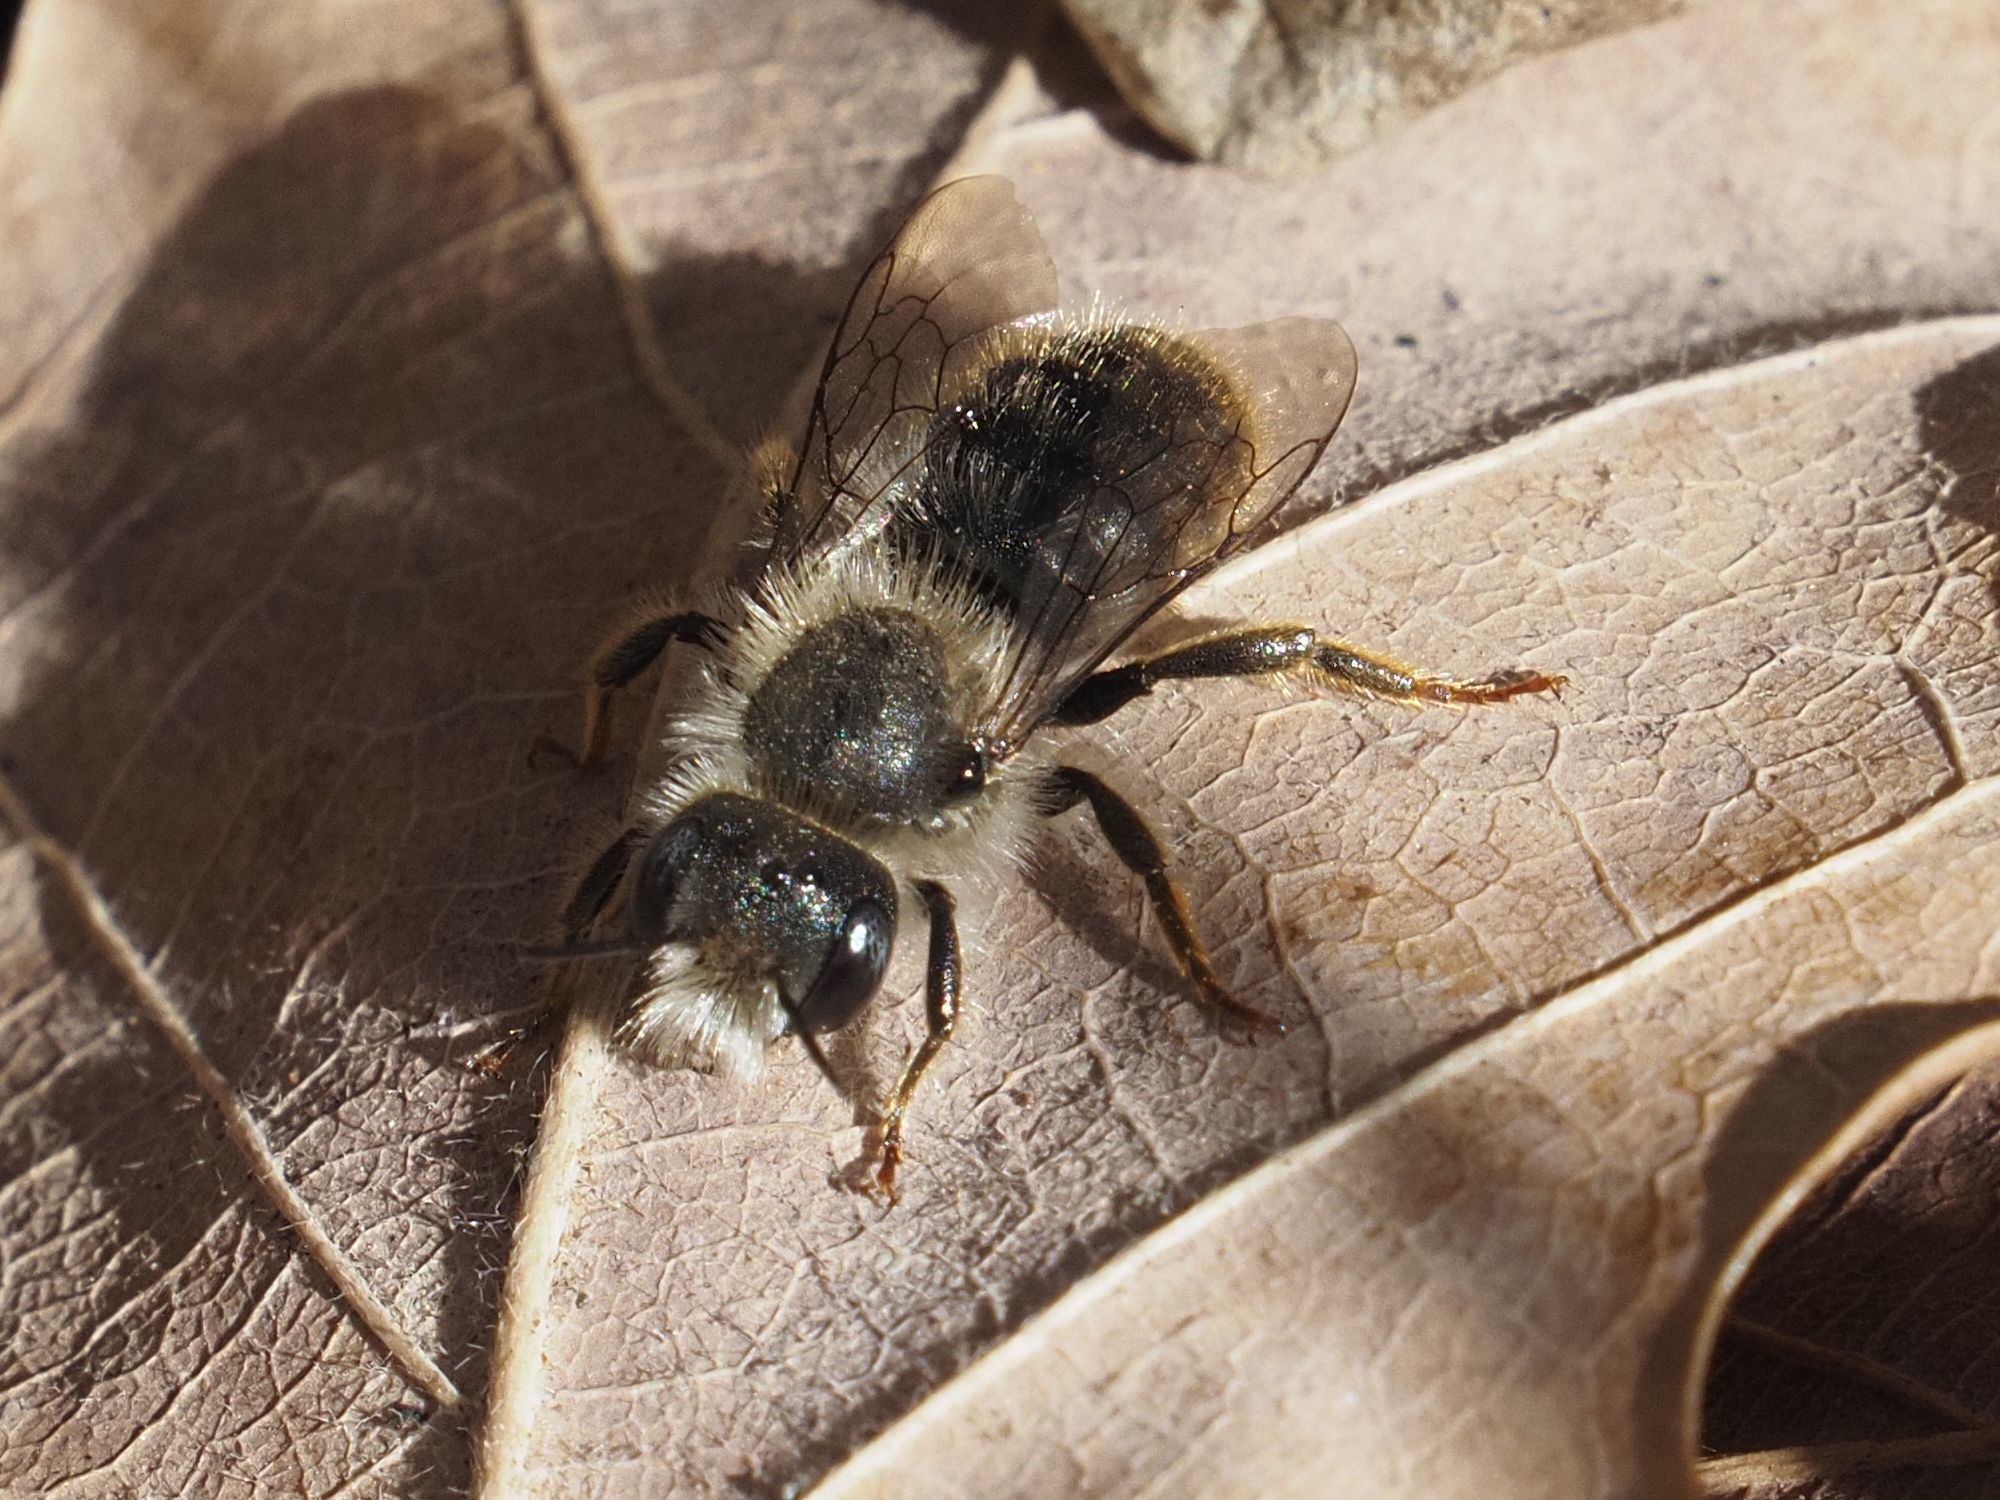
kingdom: Animalia
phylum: Arthropoda
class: Insecta
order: Hymenoptera
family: Megachilidae
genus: Osmia
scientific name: Osmia bicolor
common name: Red-tailed mason bee
